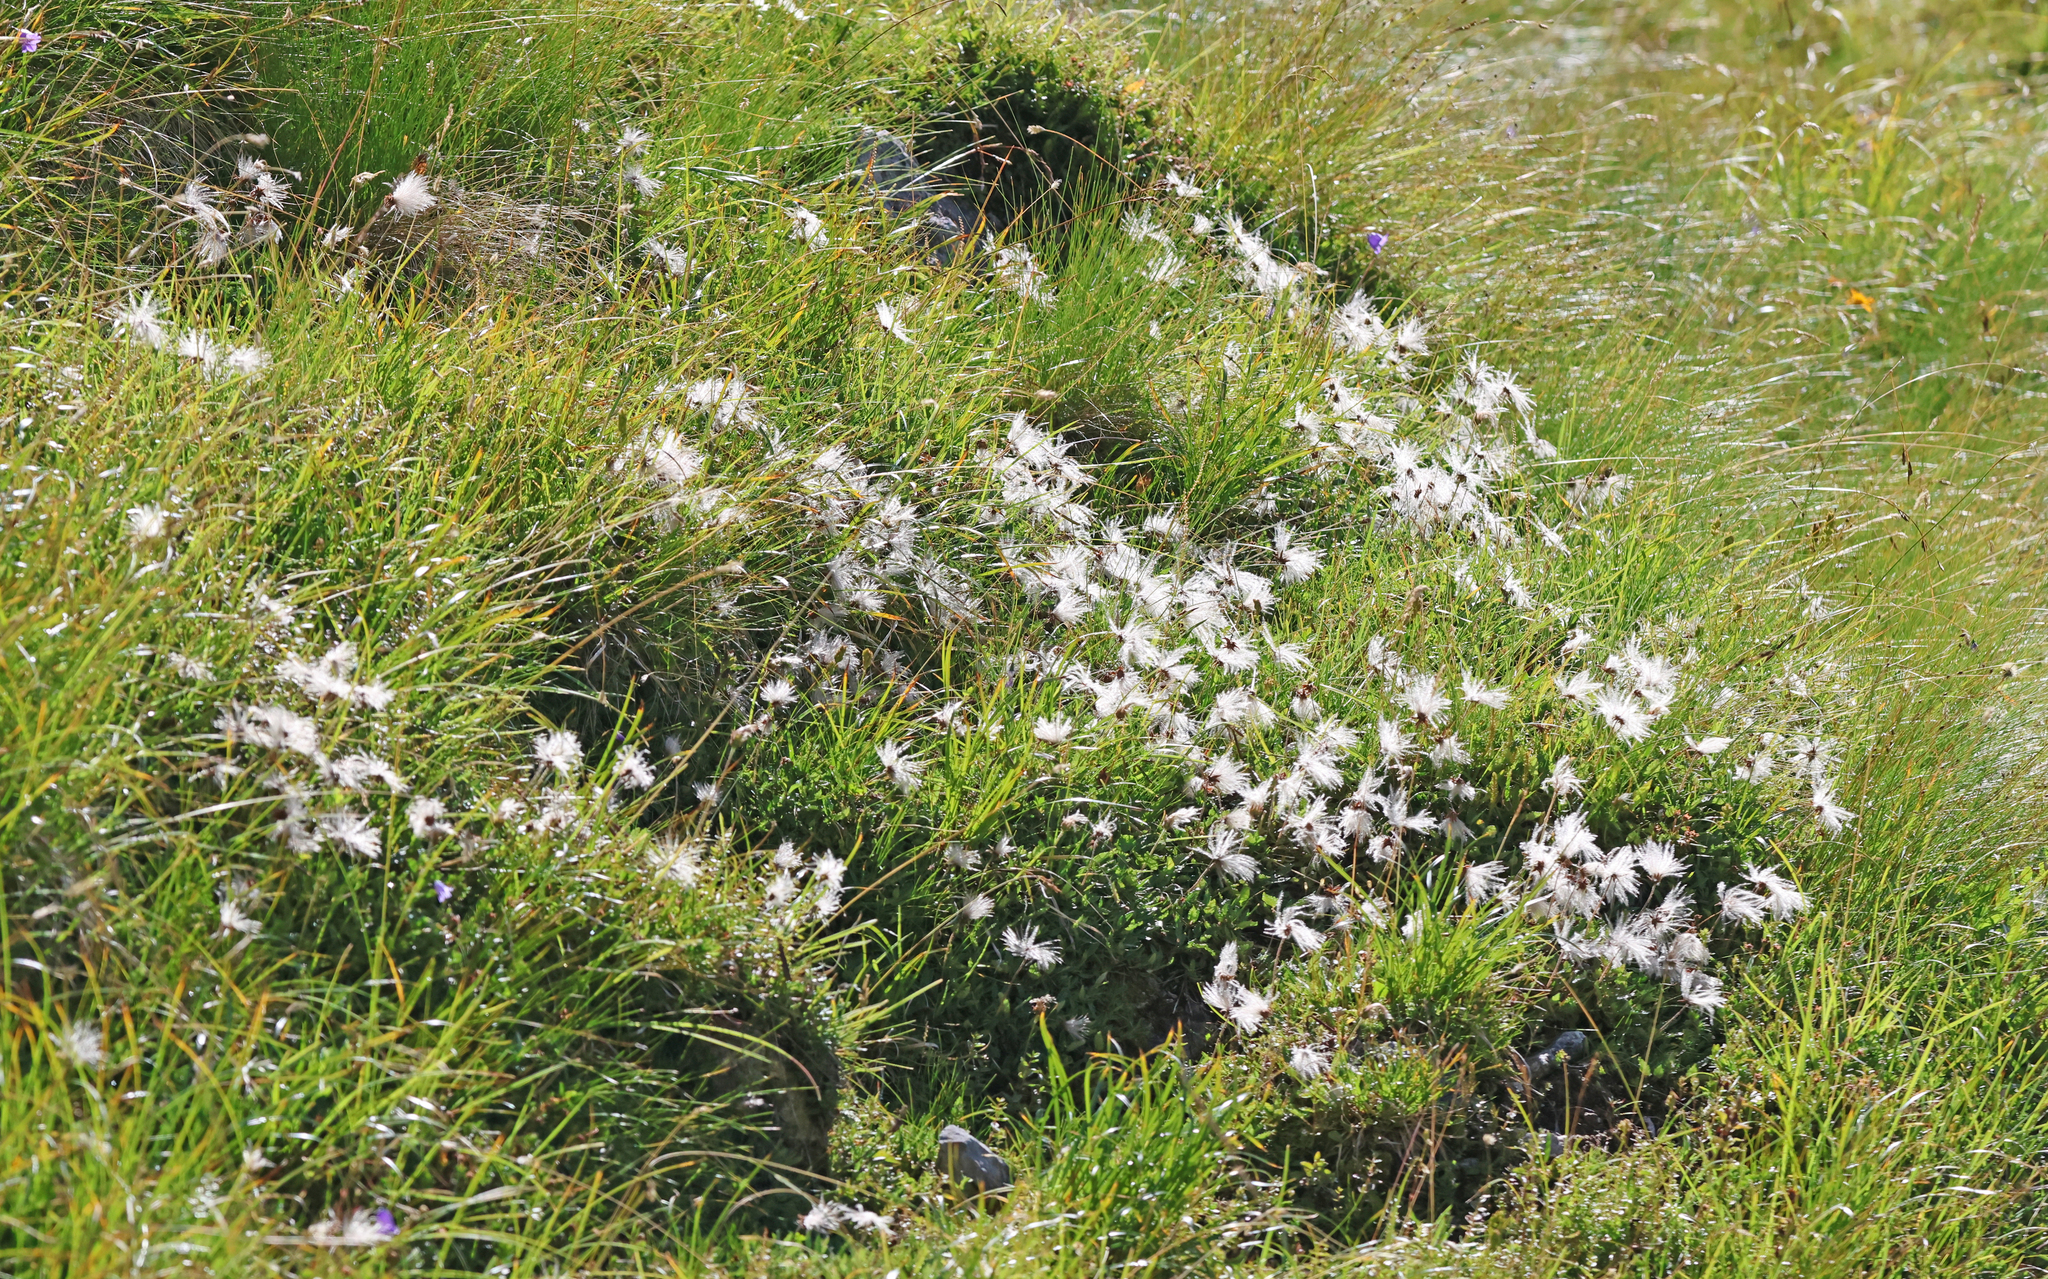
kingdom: Plantae
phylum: Tracheophyta
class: Magnoliopsida
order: Rosales
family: Rosaceae
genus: Dryas
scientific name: Dryas octopetala
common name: Eight-petal mountain-avens
